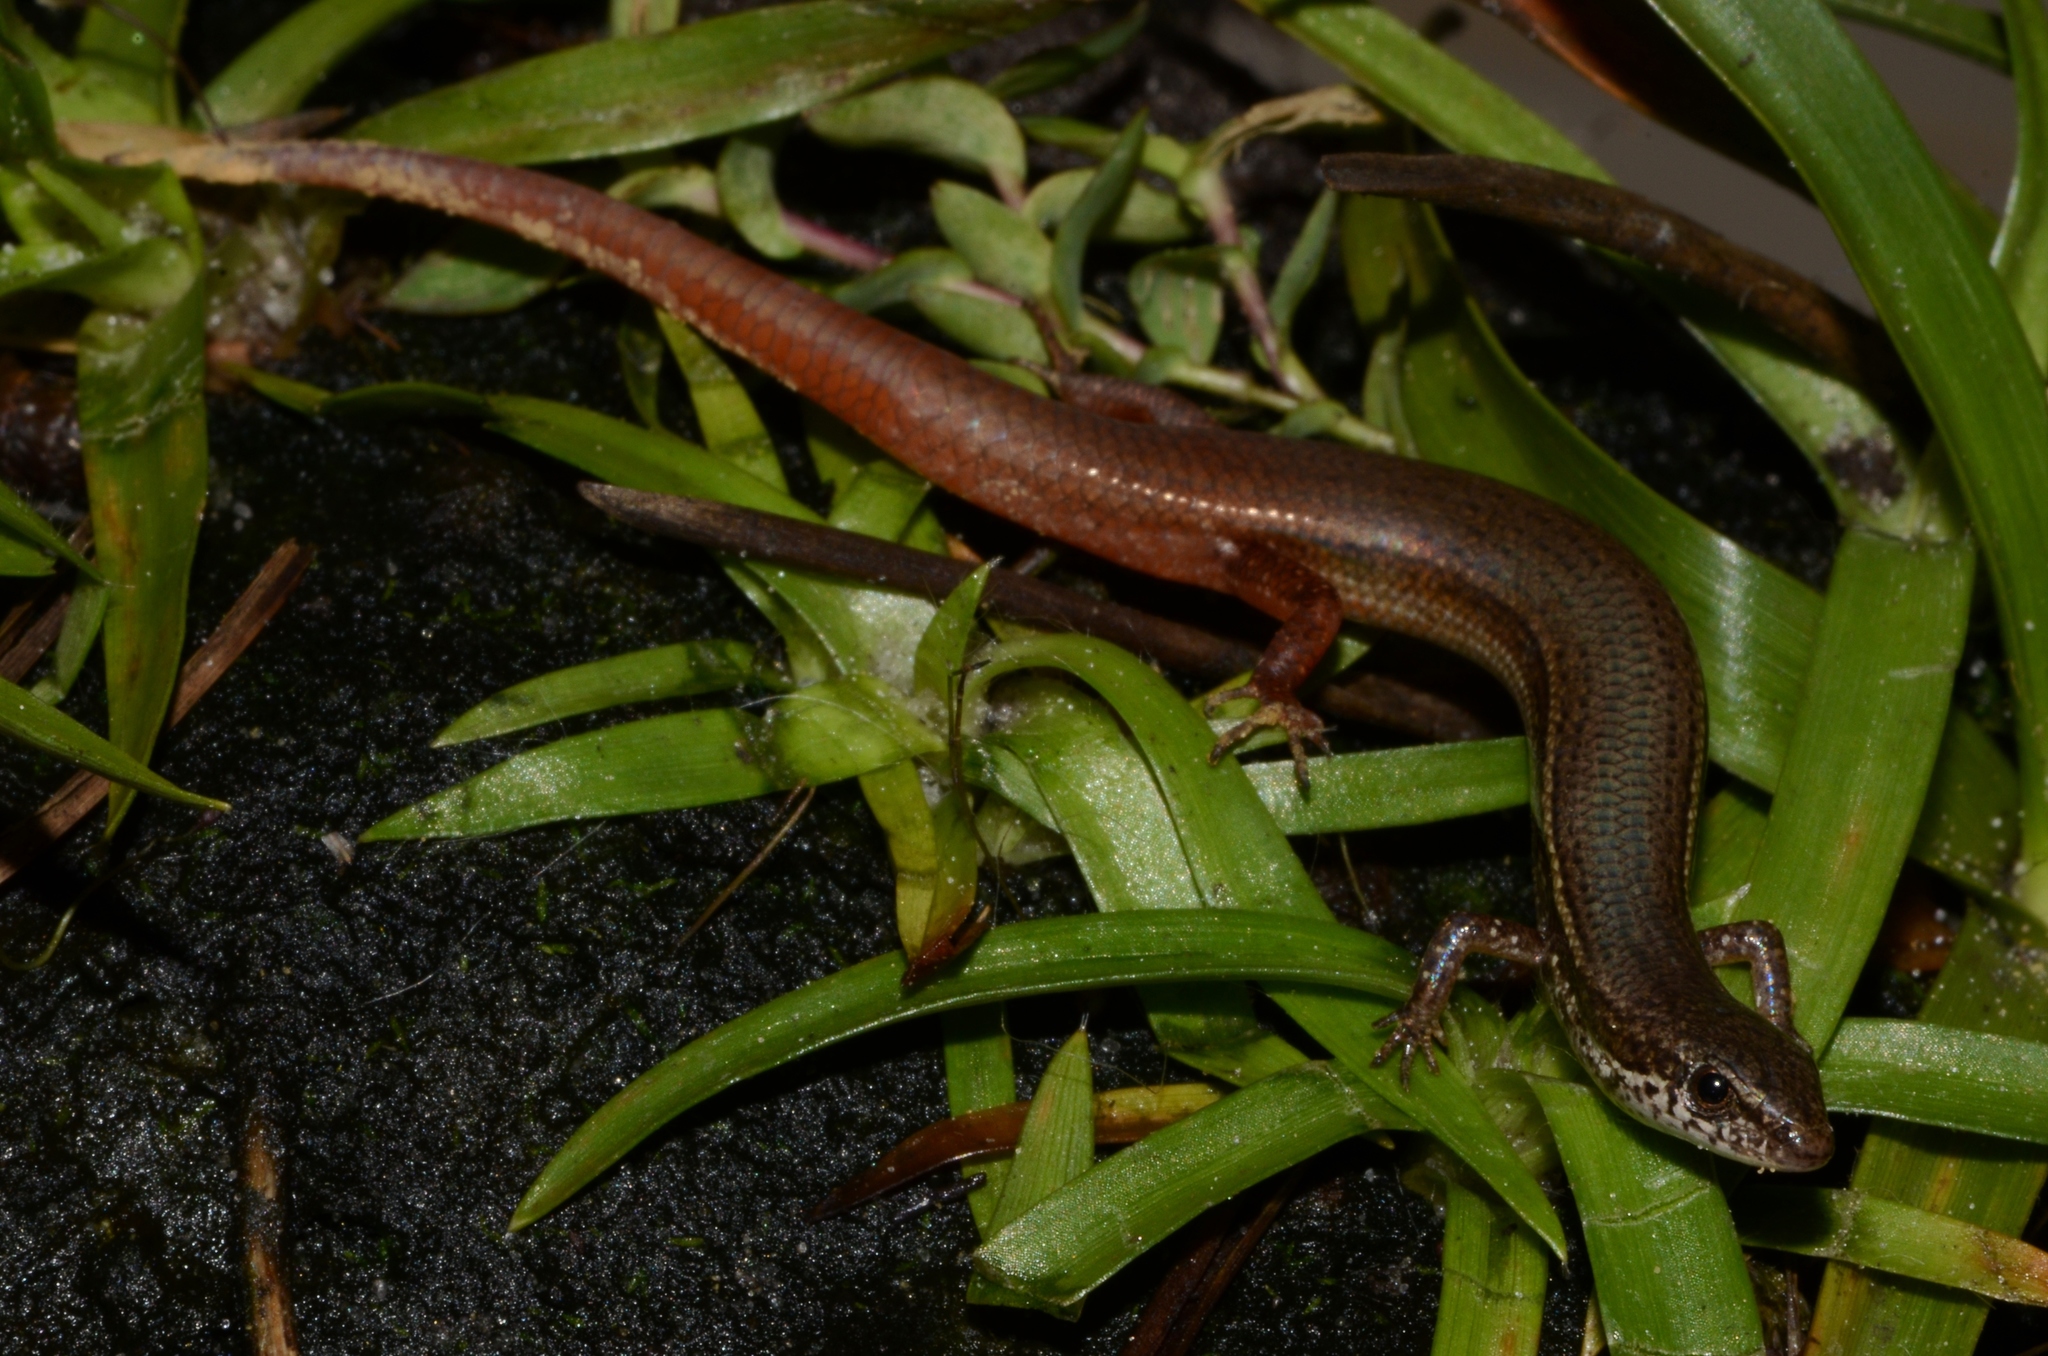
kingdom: Animalia
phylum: Chordata
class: Squamata
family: Scincidae
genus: Panaspis
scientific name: Panaspis cabindae
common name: Cabinda lidless skink
